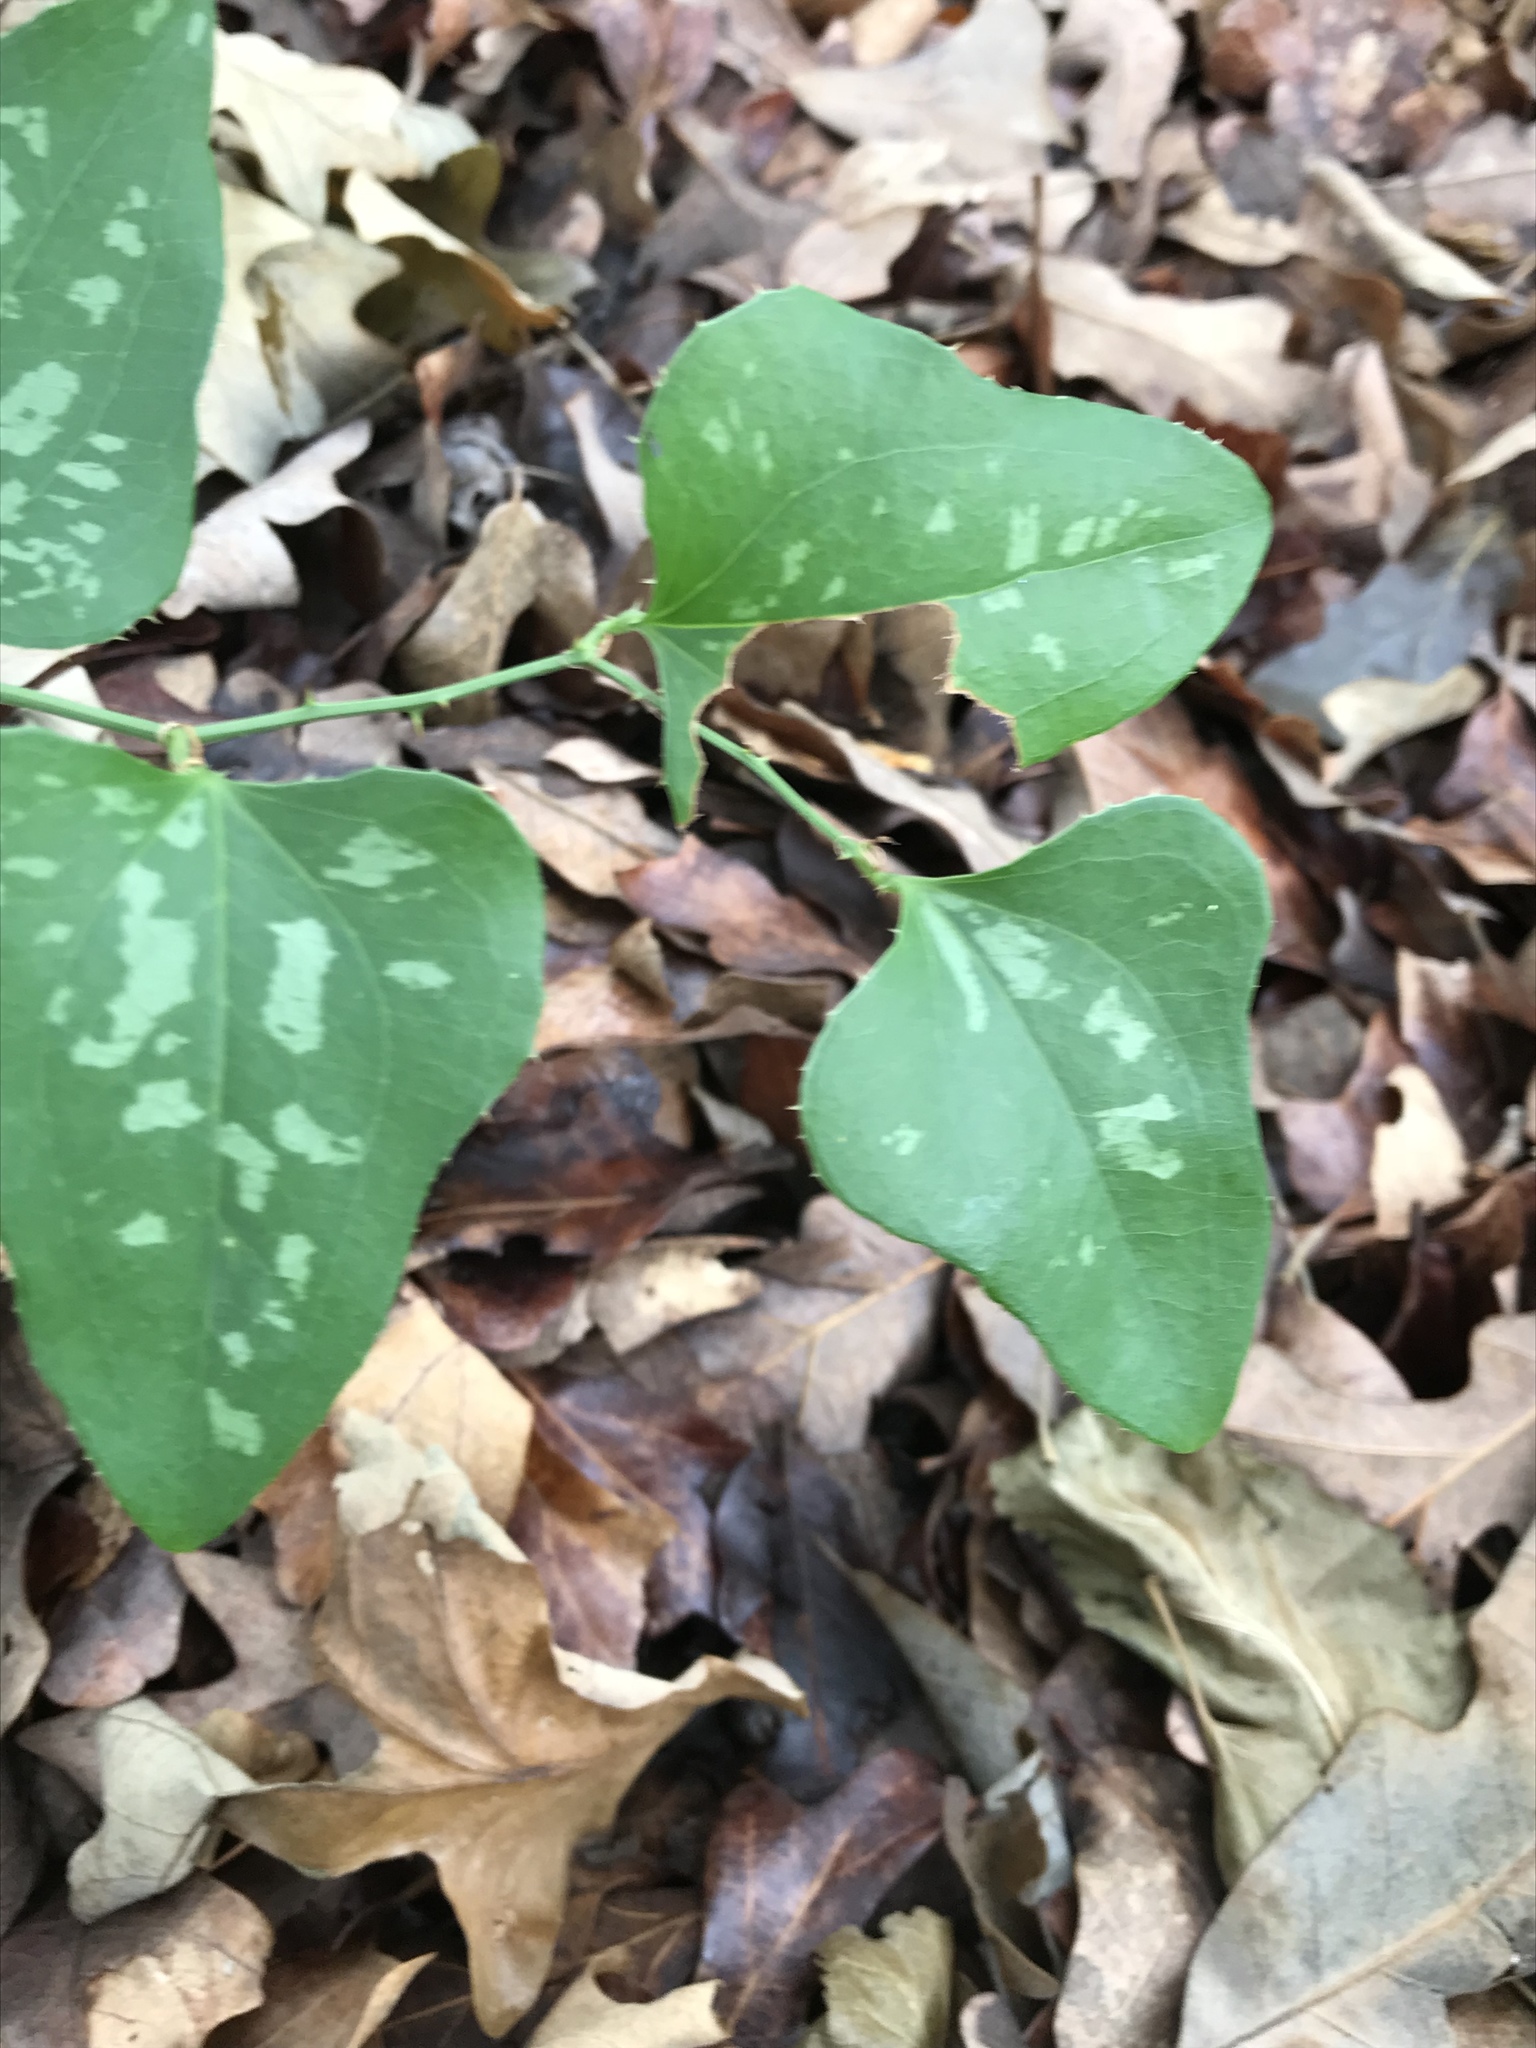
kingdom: Plantae
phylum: Tracheophyta
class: Liliopsida
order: Liliales
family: Smilacaceae
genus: Smilax
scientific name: Smilax bona-nox
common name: Catbrier
